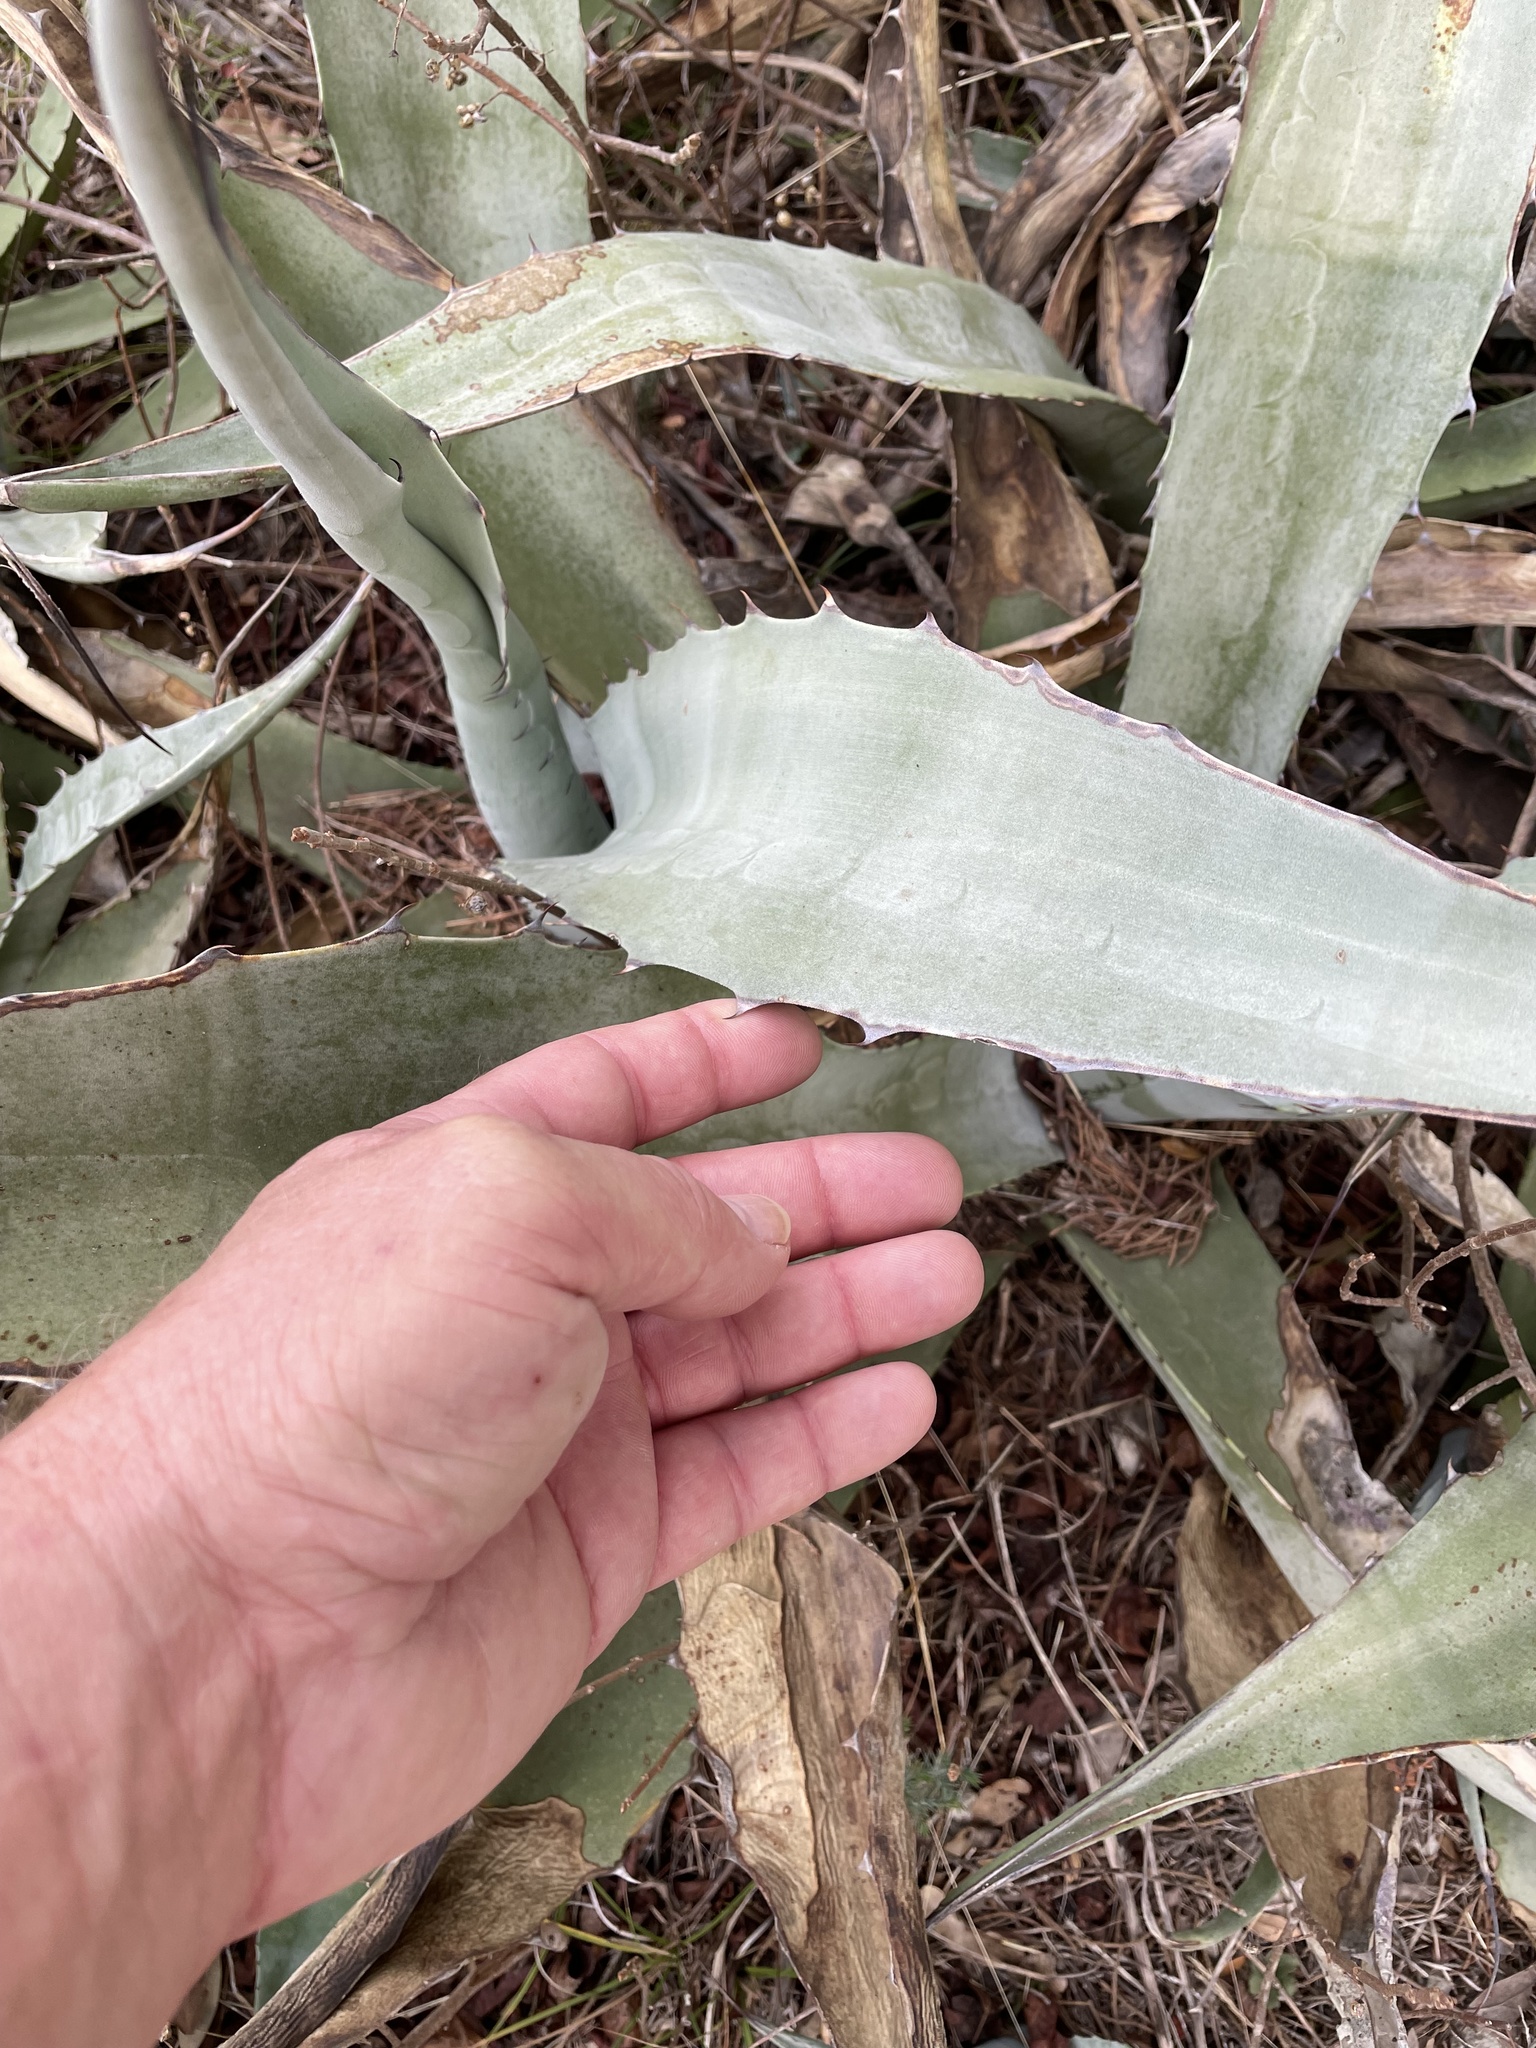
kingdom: Plantae
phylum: Tracheophyta
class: Liliopsida
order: Asparagales
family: Asparagaceae
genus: Agave
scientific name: Agave americana
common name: Centuryplant
